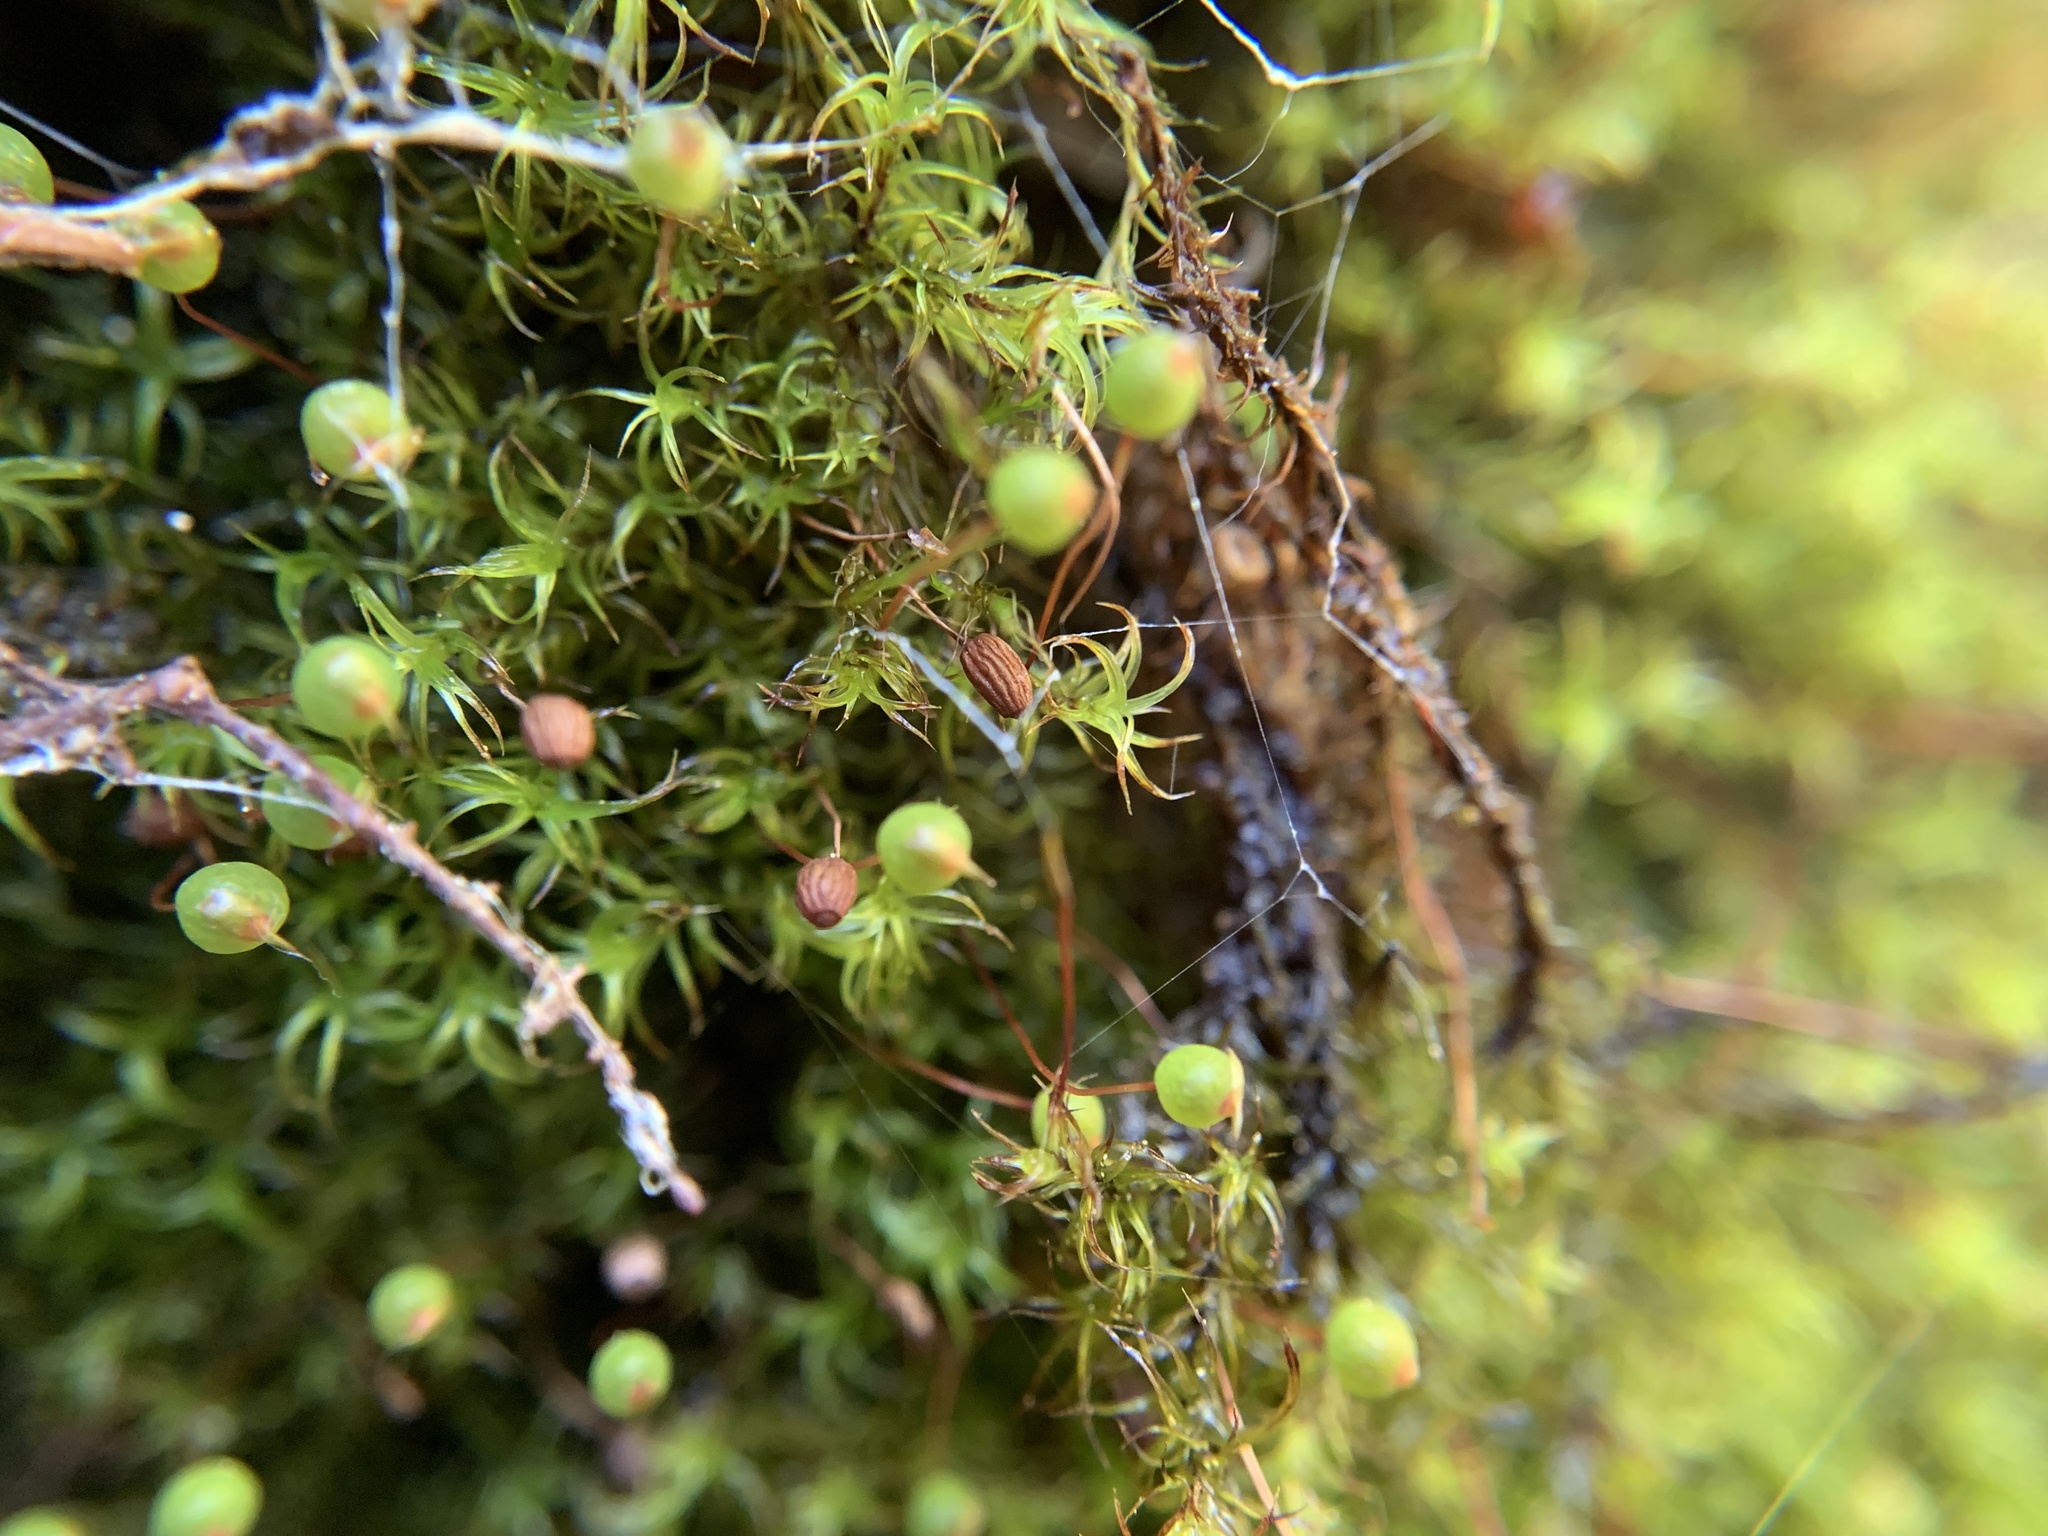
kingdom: Plantae
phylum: Bryophyta
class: Bryopsida
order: Bartramiales
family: Bartramiaceae
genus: Plagiopus
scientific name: Plagiopus oederianus
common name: Oeder's apple moss
